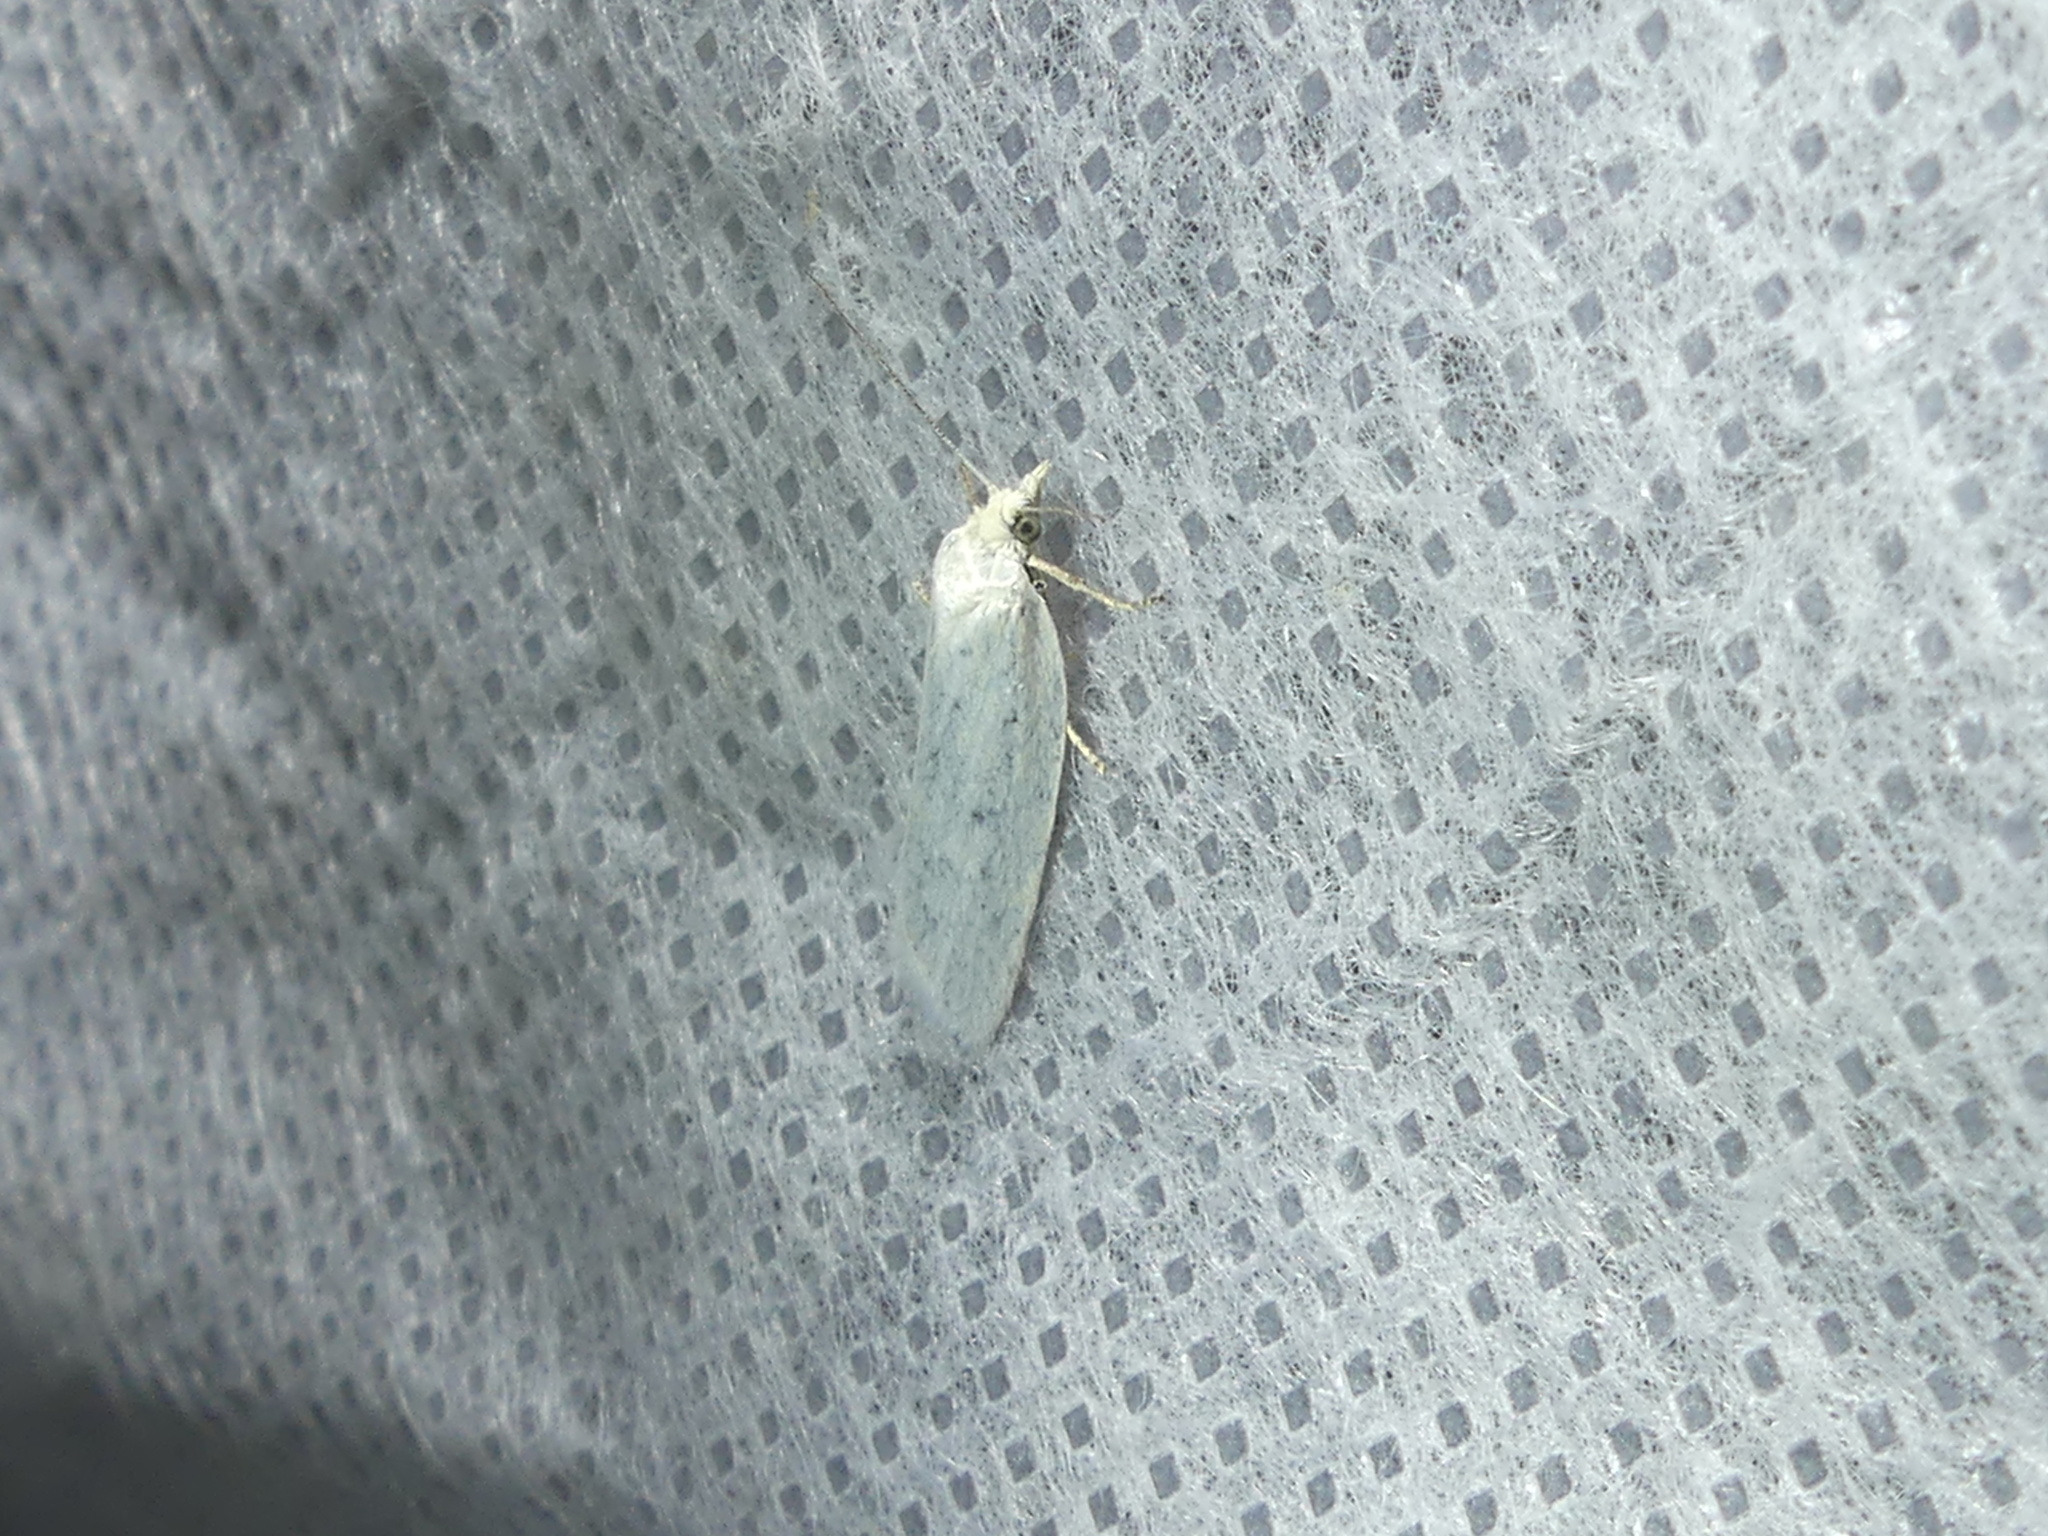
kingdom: Animalia
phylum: Arthropoda
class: Insecta
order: Lepidoptera
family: Tortricidae
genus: Eana
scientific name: Eana argentana
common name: Silver shade
